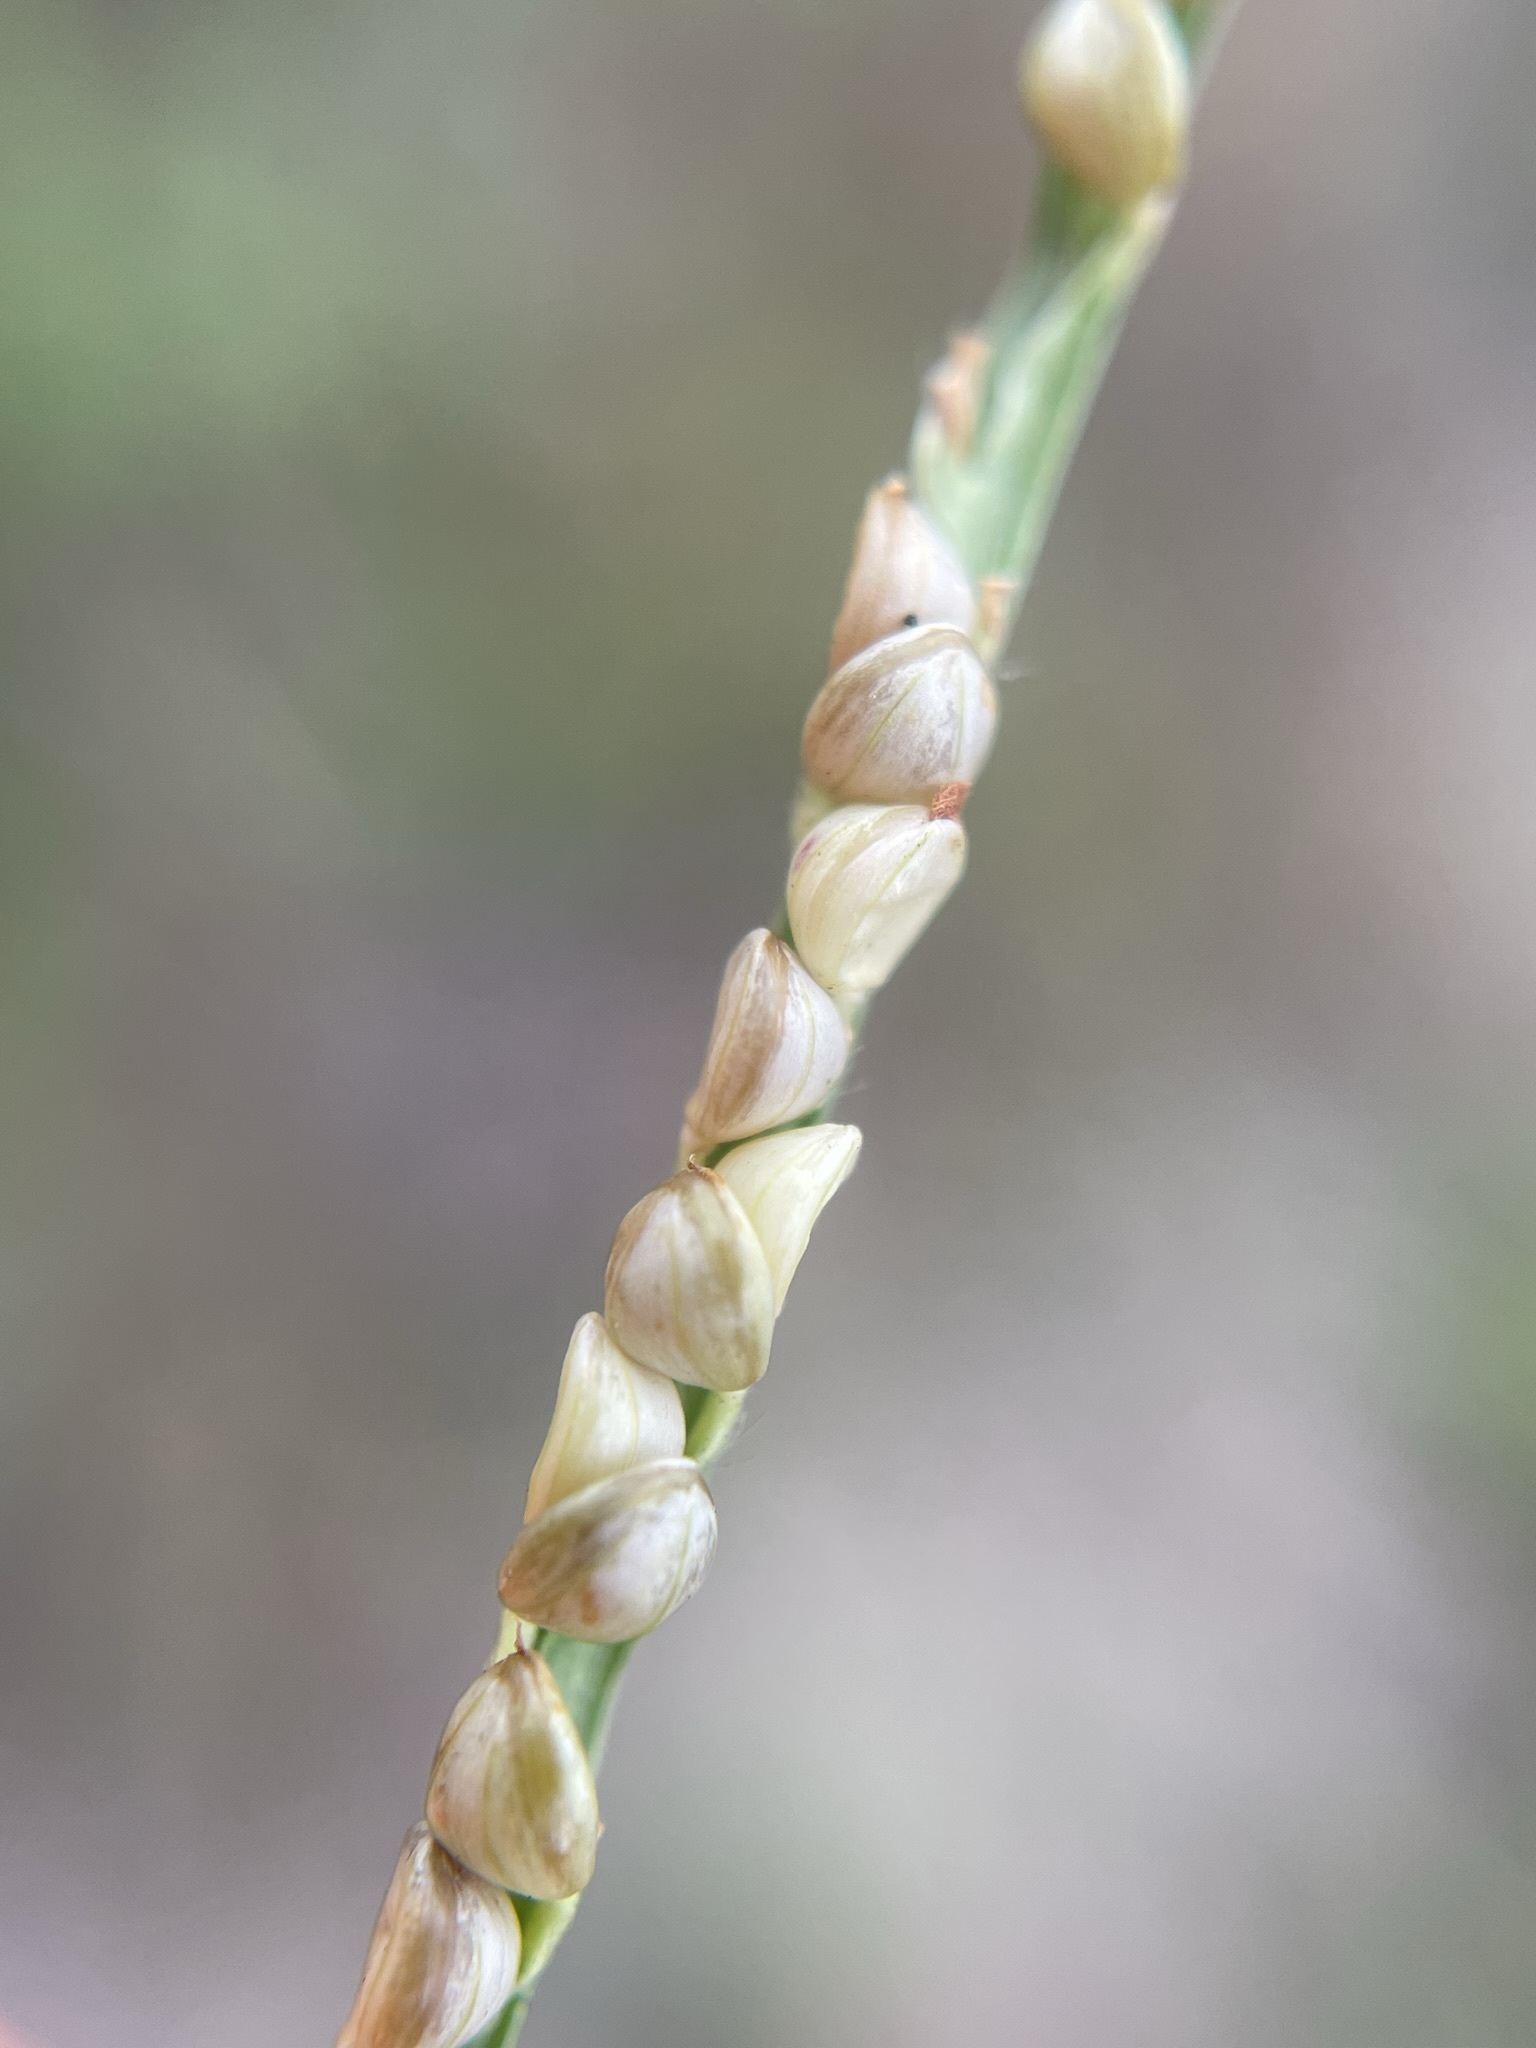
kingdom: Plantae
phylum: Tracheophyta
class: Liliopsida
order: Poales
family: Poaceae
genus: Paspalum
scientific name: Paspalum setaceum
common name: Slender paspalum
